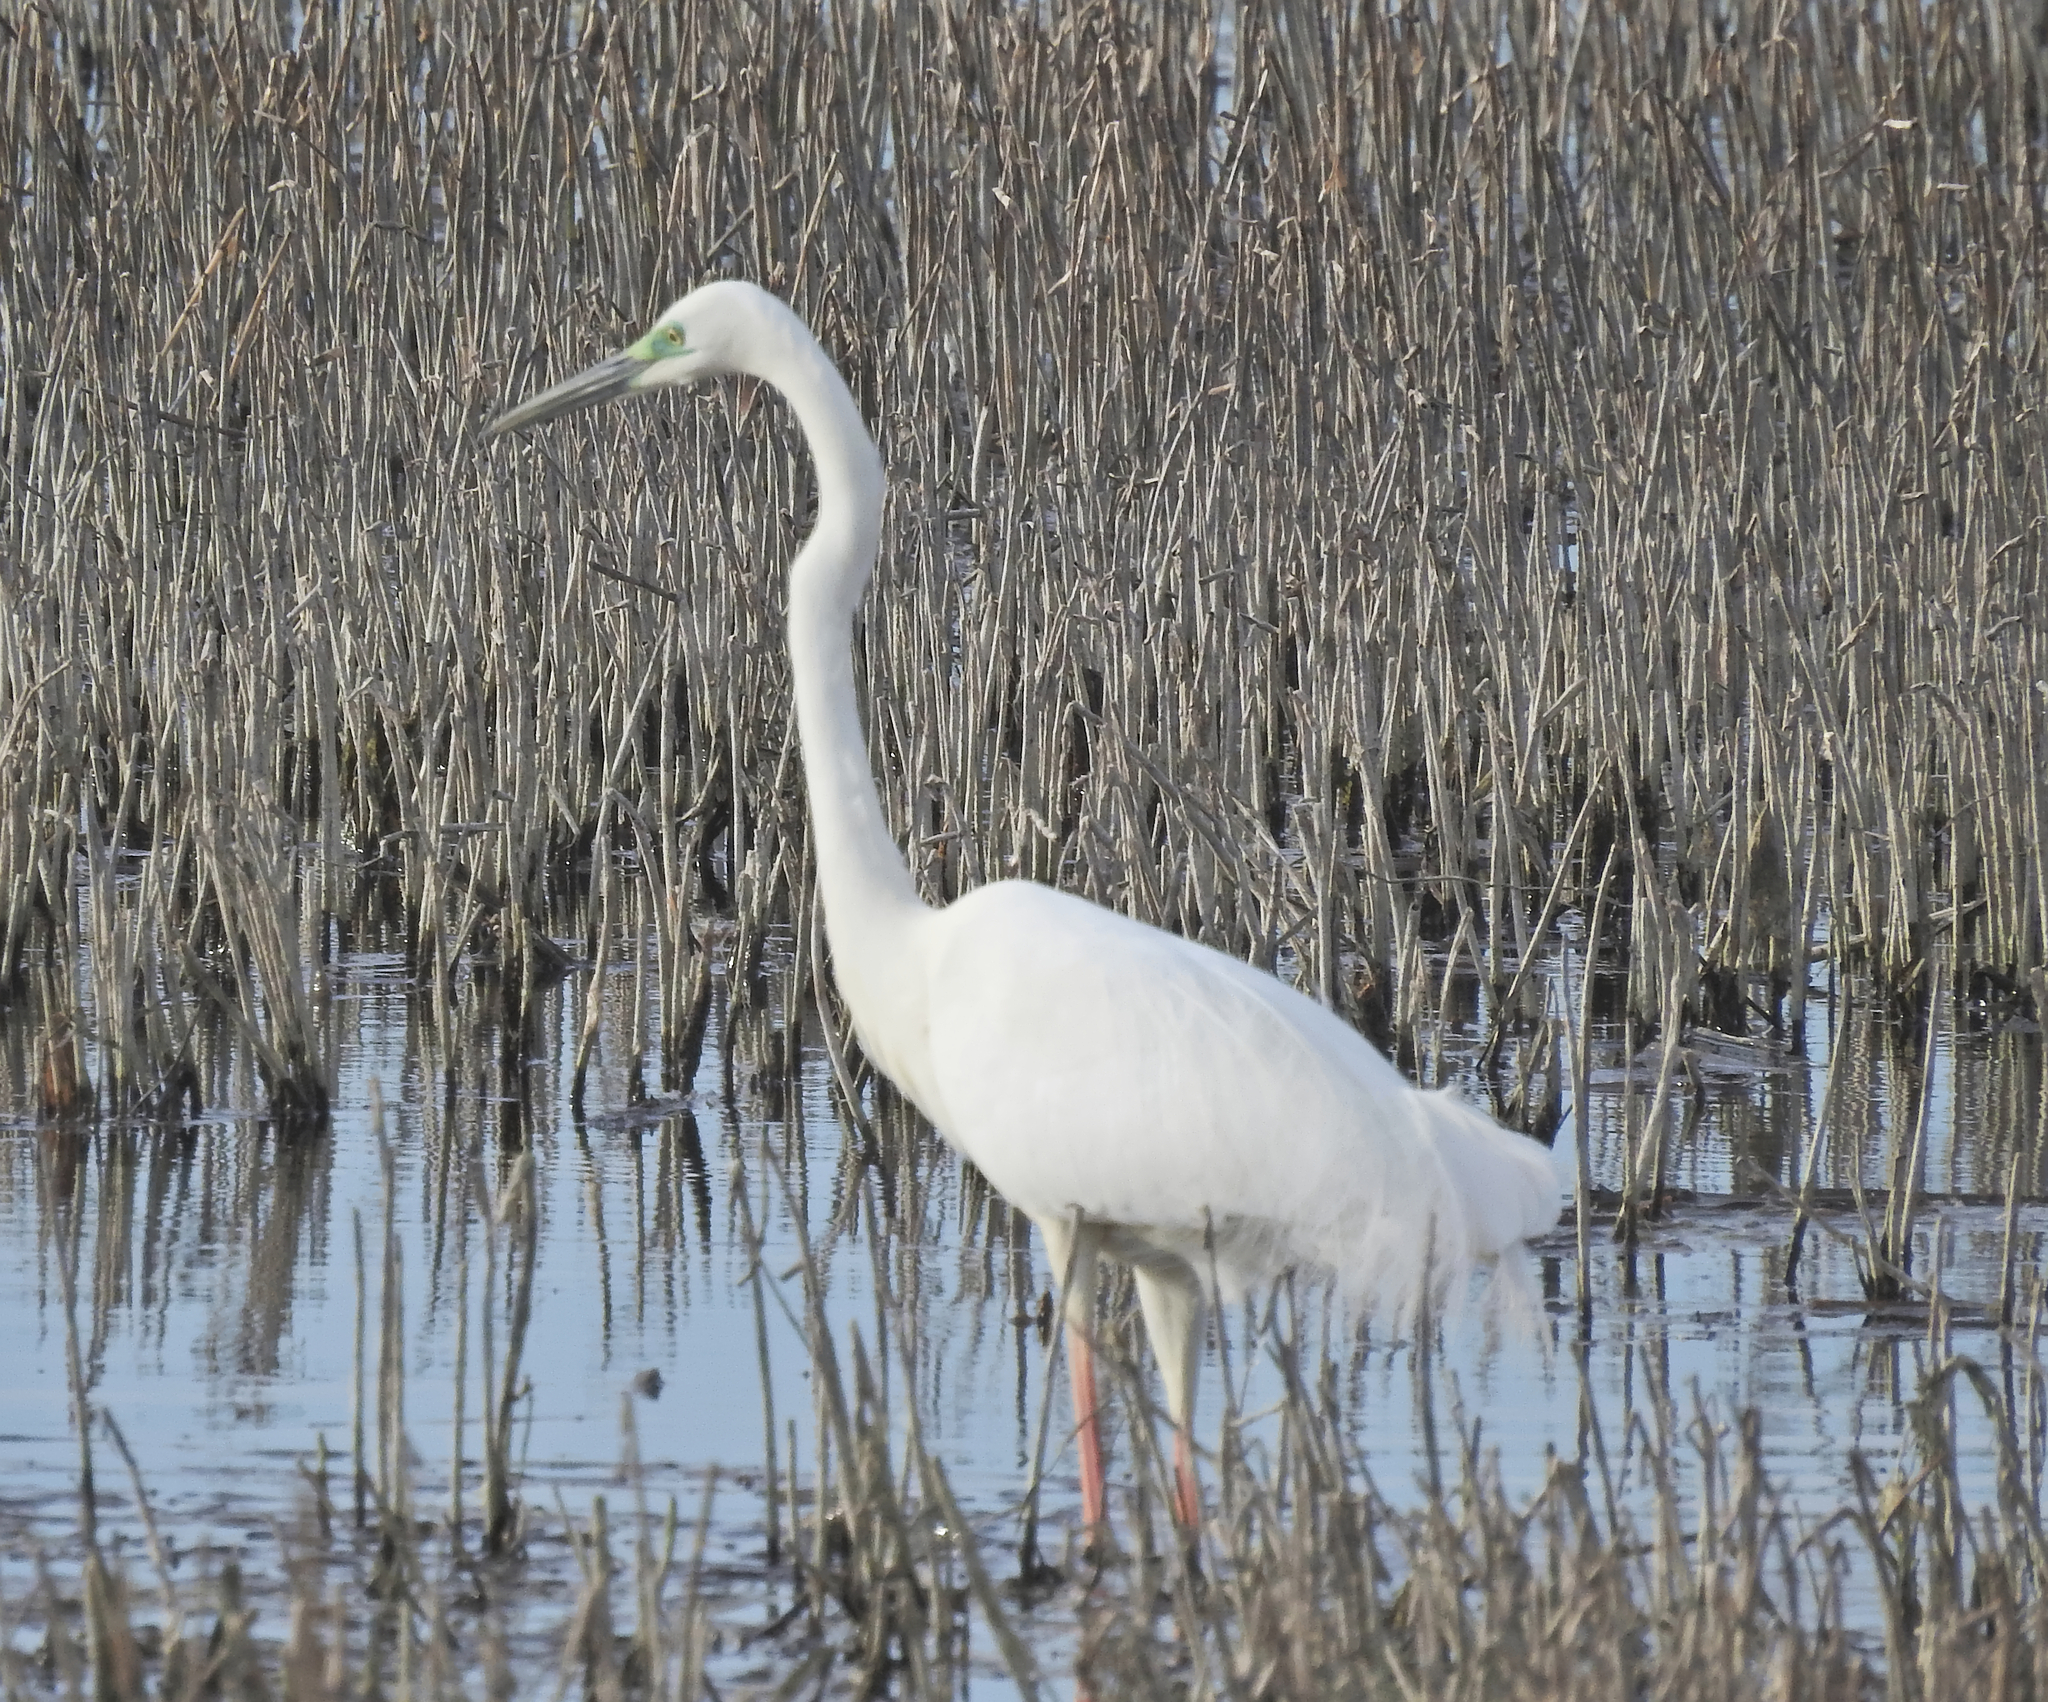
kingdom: Animalia
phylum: Chordata
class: Aves
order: Pelecaniformes
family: Ardeidae
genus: Ardea
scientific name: Ardea alba
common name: Great egret
